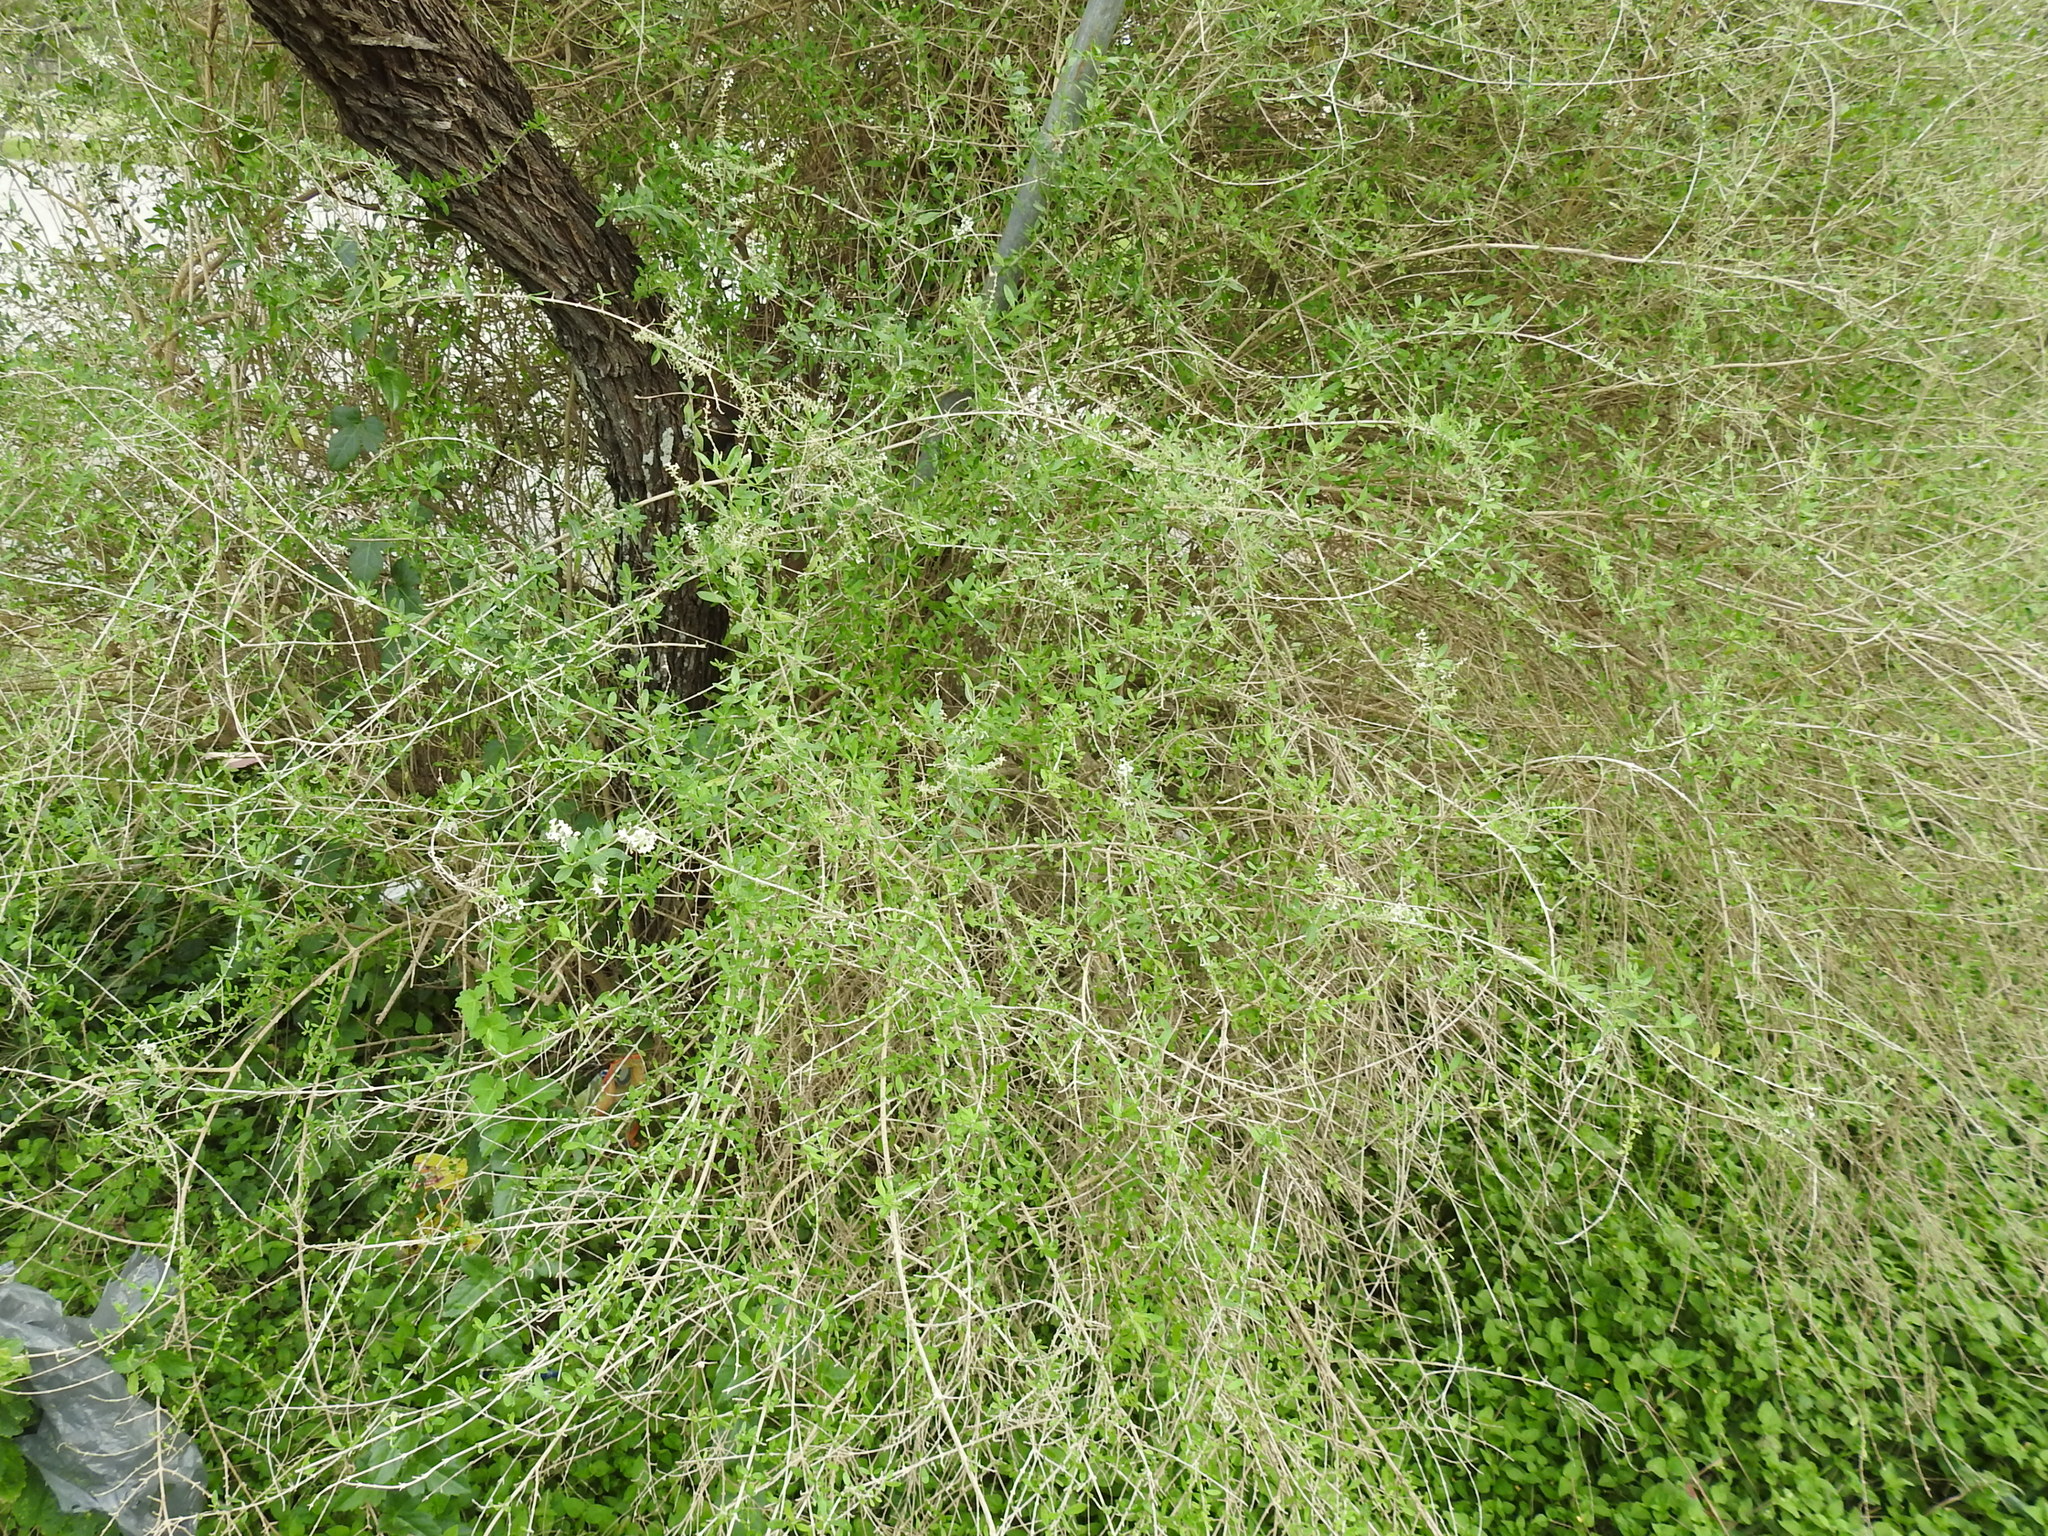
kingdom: Plantae
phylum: Tracheophyta
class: Magnoliopsida
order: Lamiales
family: Verbenaceae
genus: Aloysia
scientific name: Aloysia gratissima
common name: Common bee-brush
